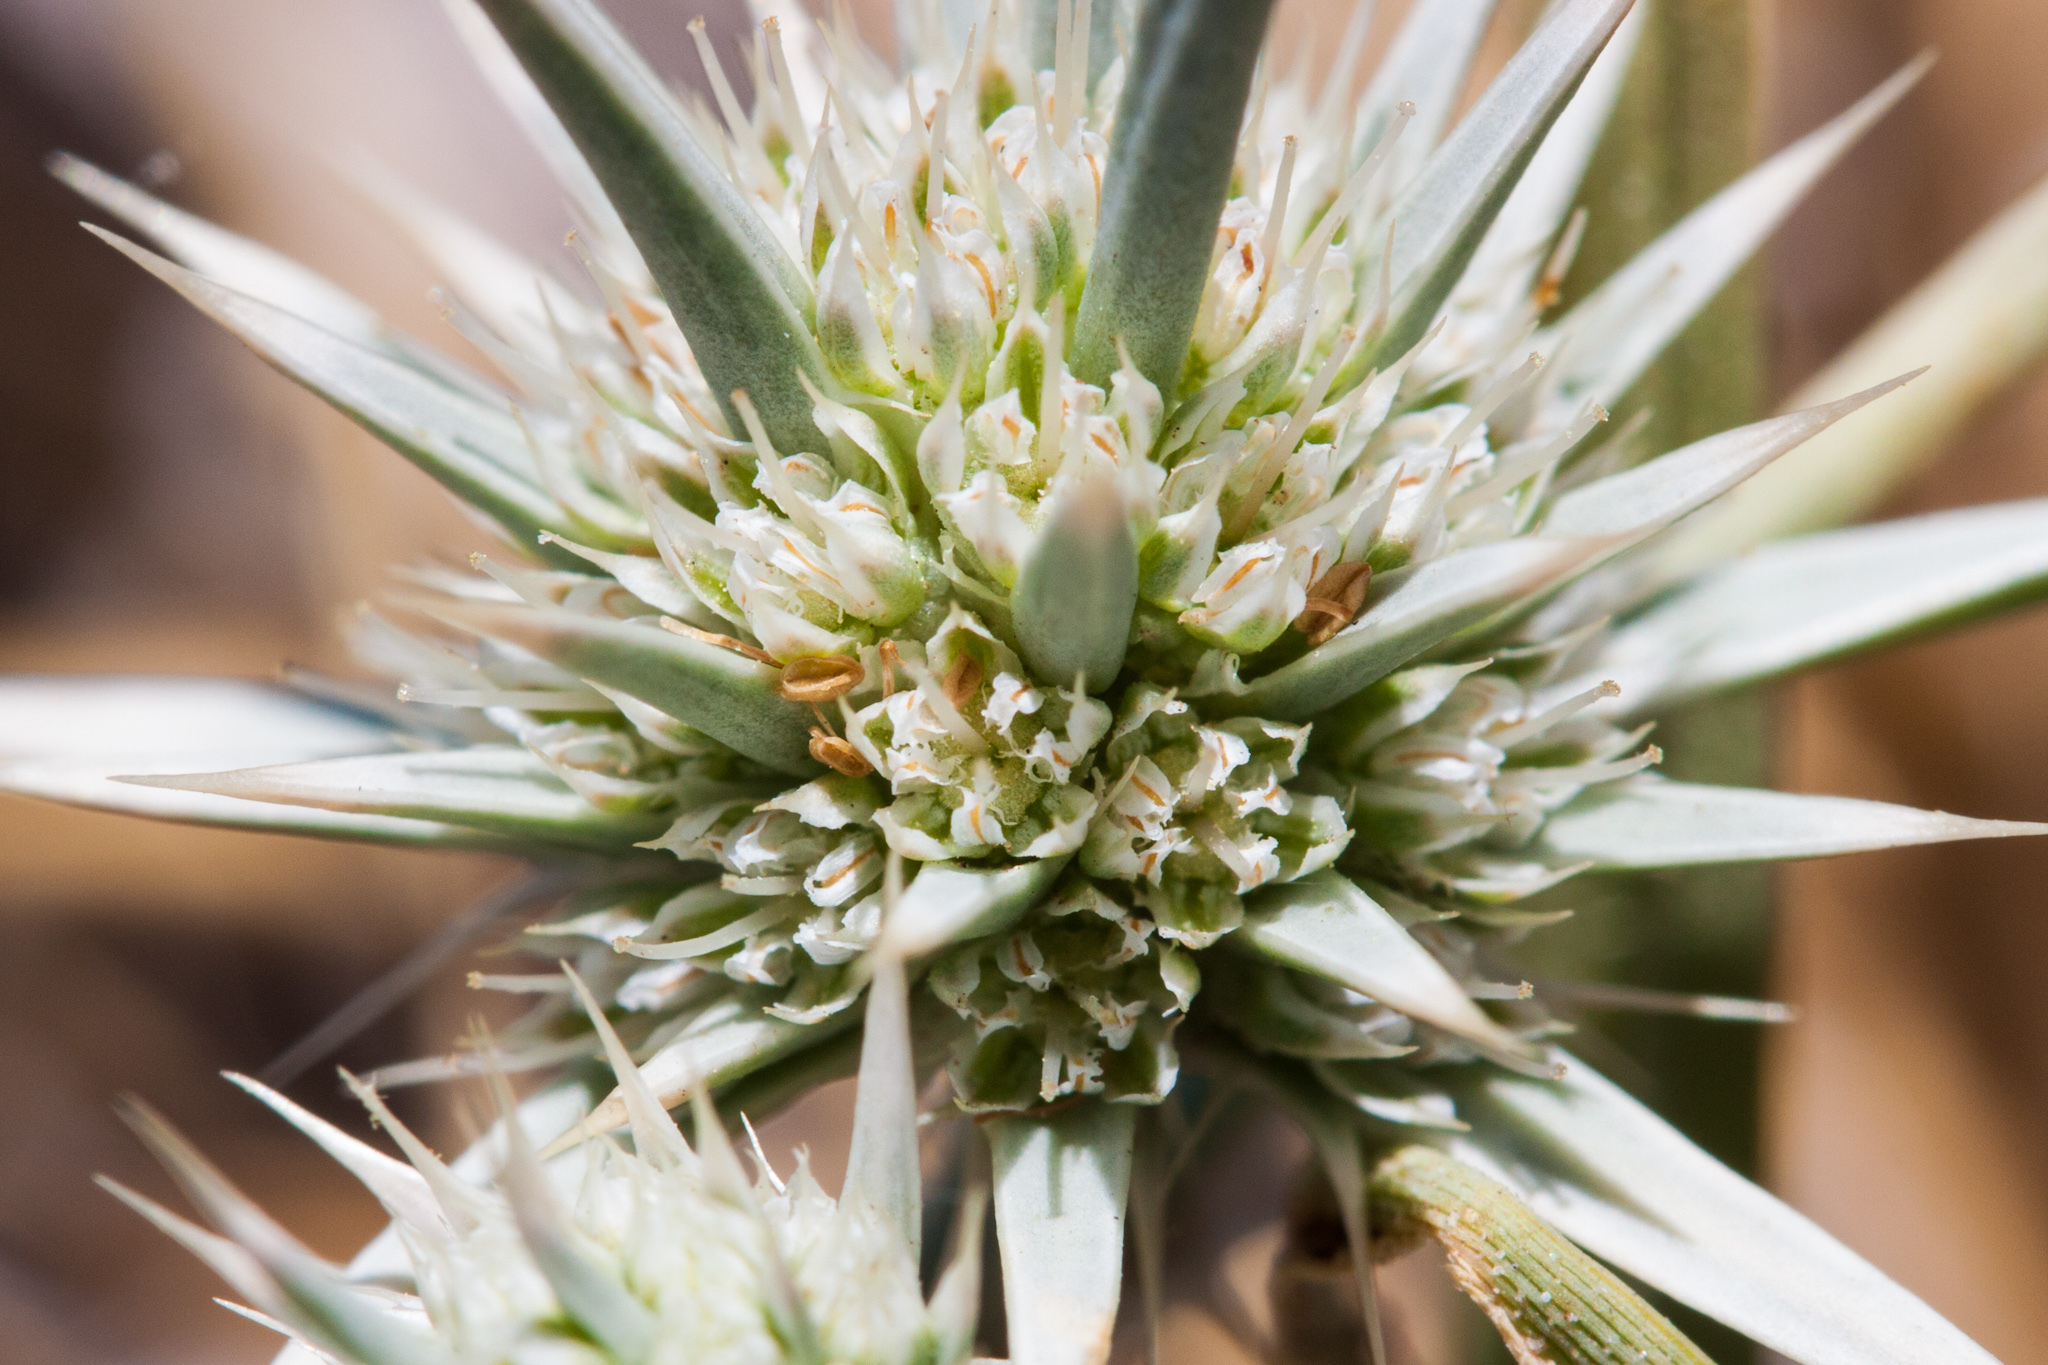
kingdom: Plantae
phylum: Tracheophyta
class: Magnoliopsida
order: Apiales
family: Apiaceae
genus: Eryngium
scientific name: Eryngium aristulatum
